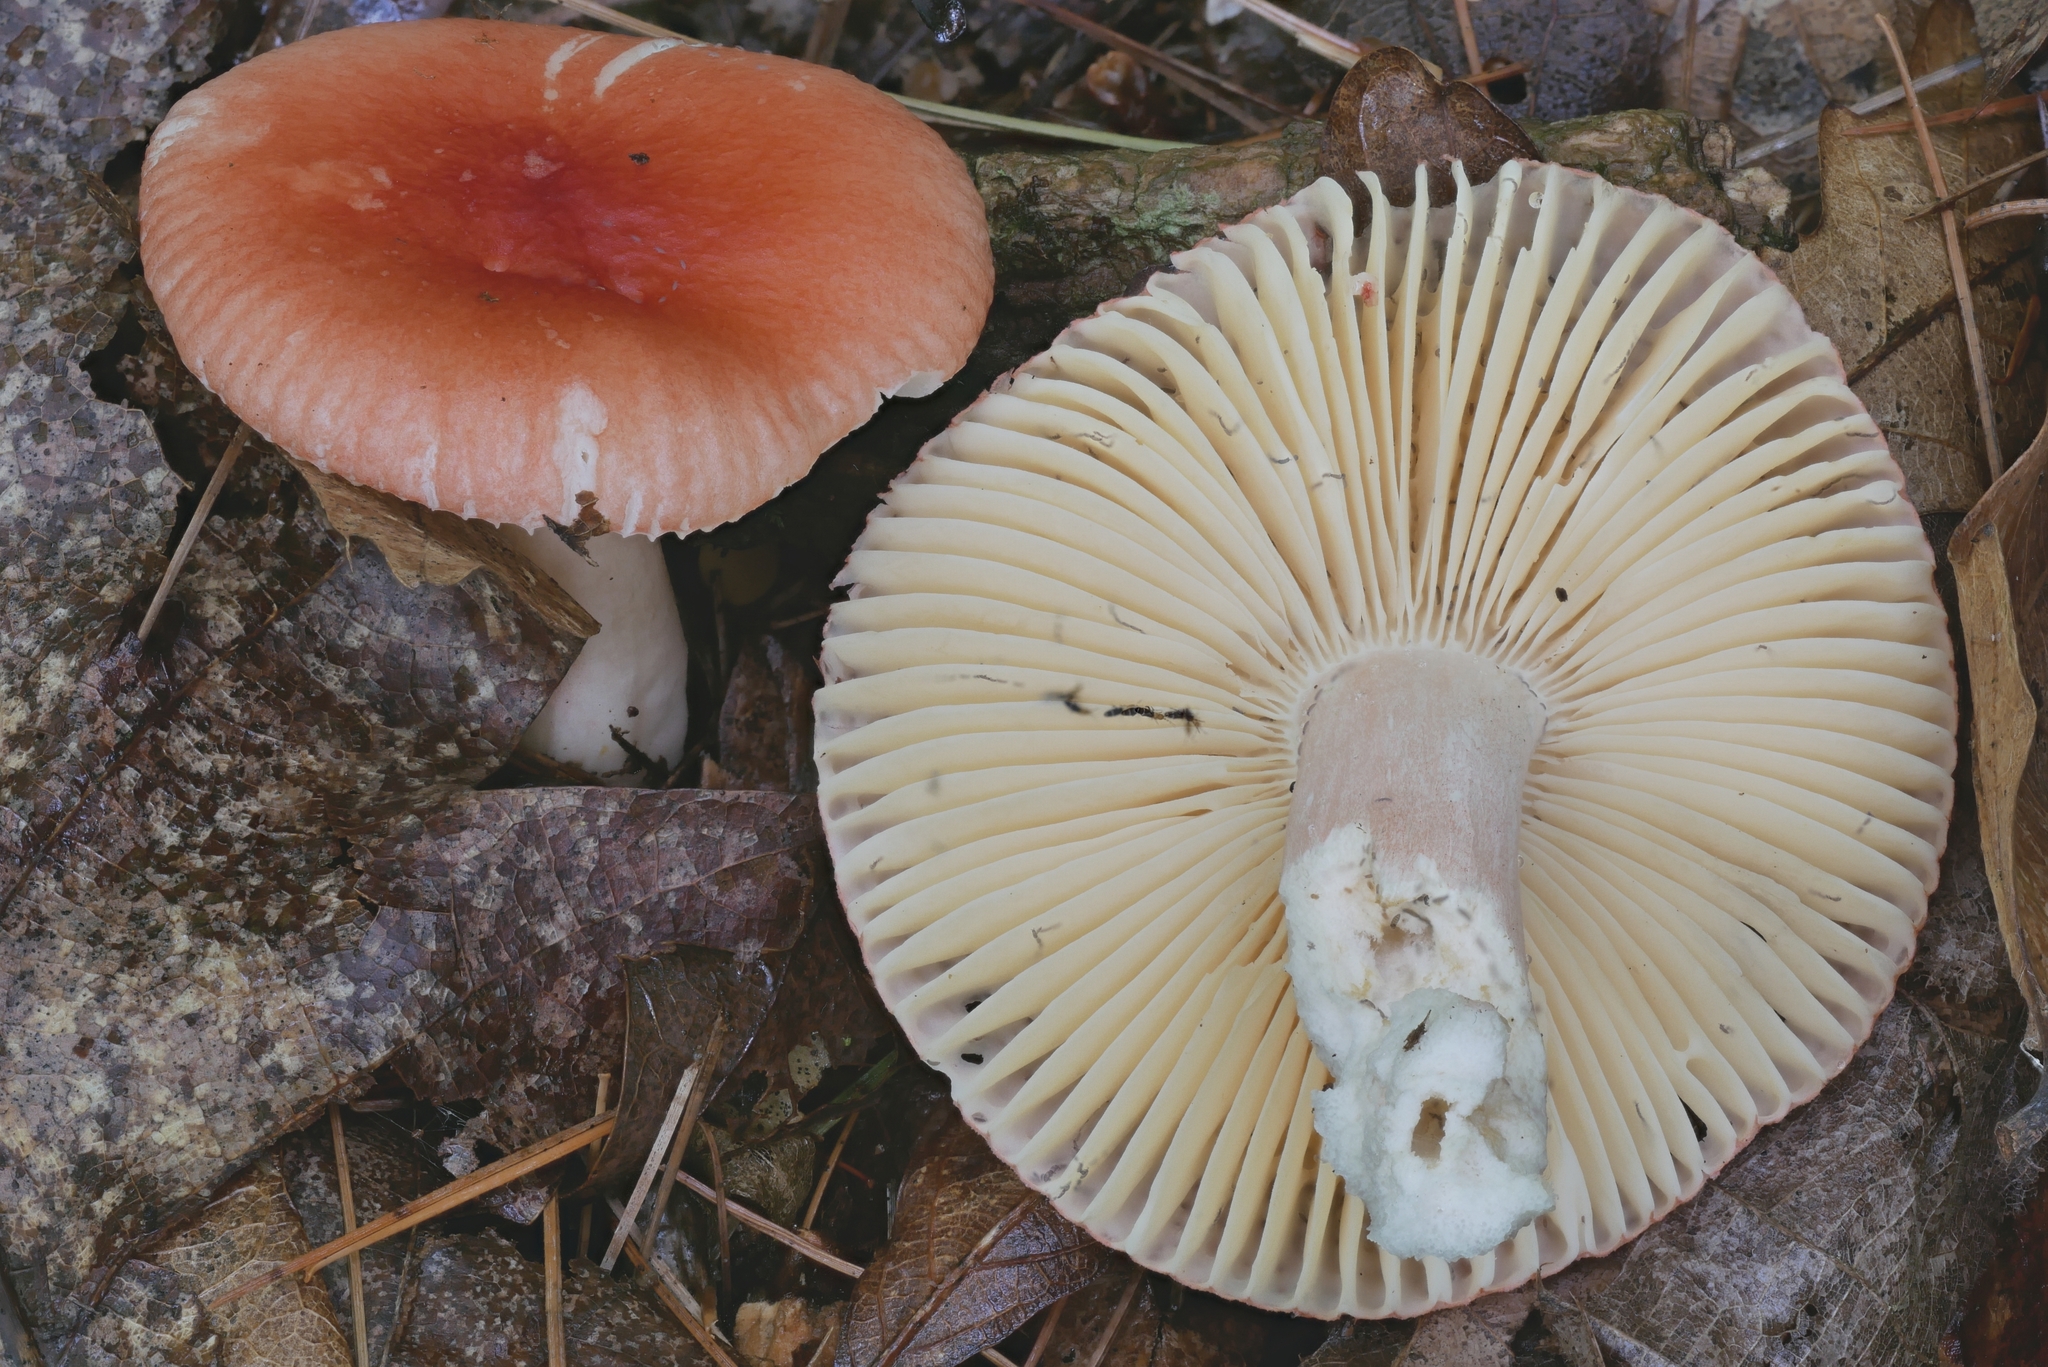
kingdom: Fungi
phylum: Basidiomycota
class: Agaricomycetes
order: Russulales
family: Russulaceae
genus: Russula
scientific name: Russula
